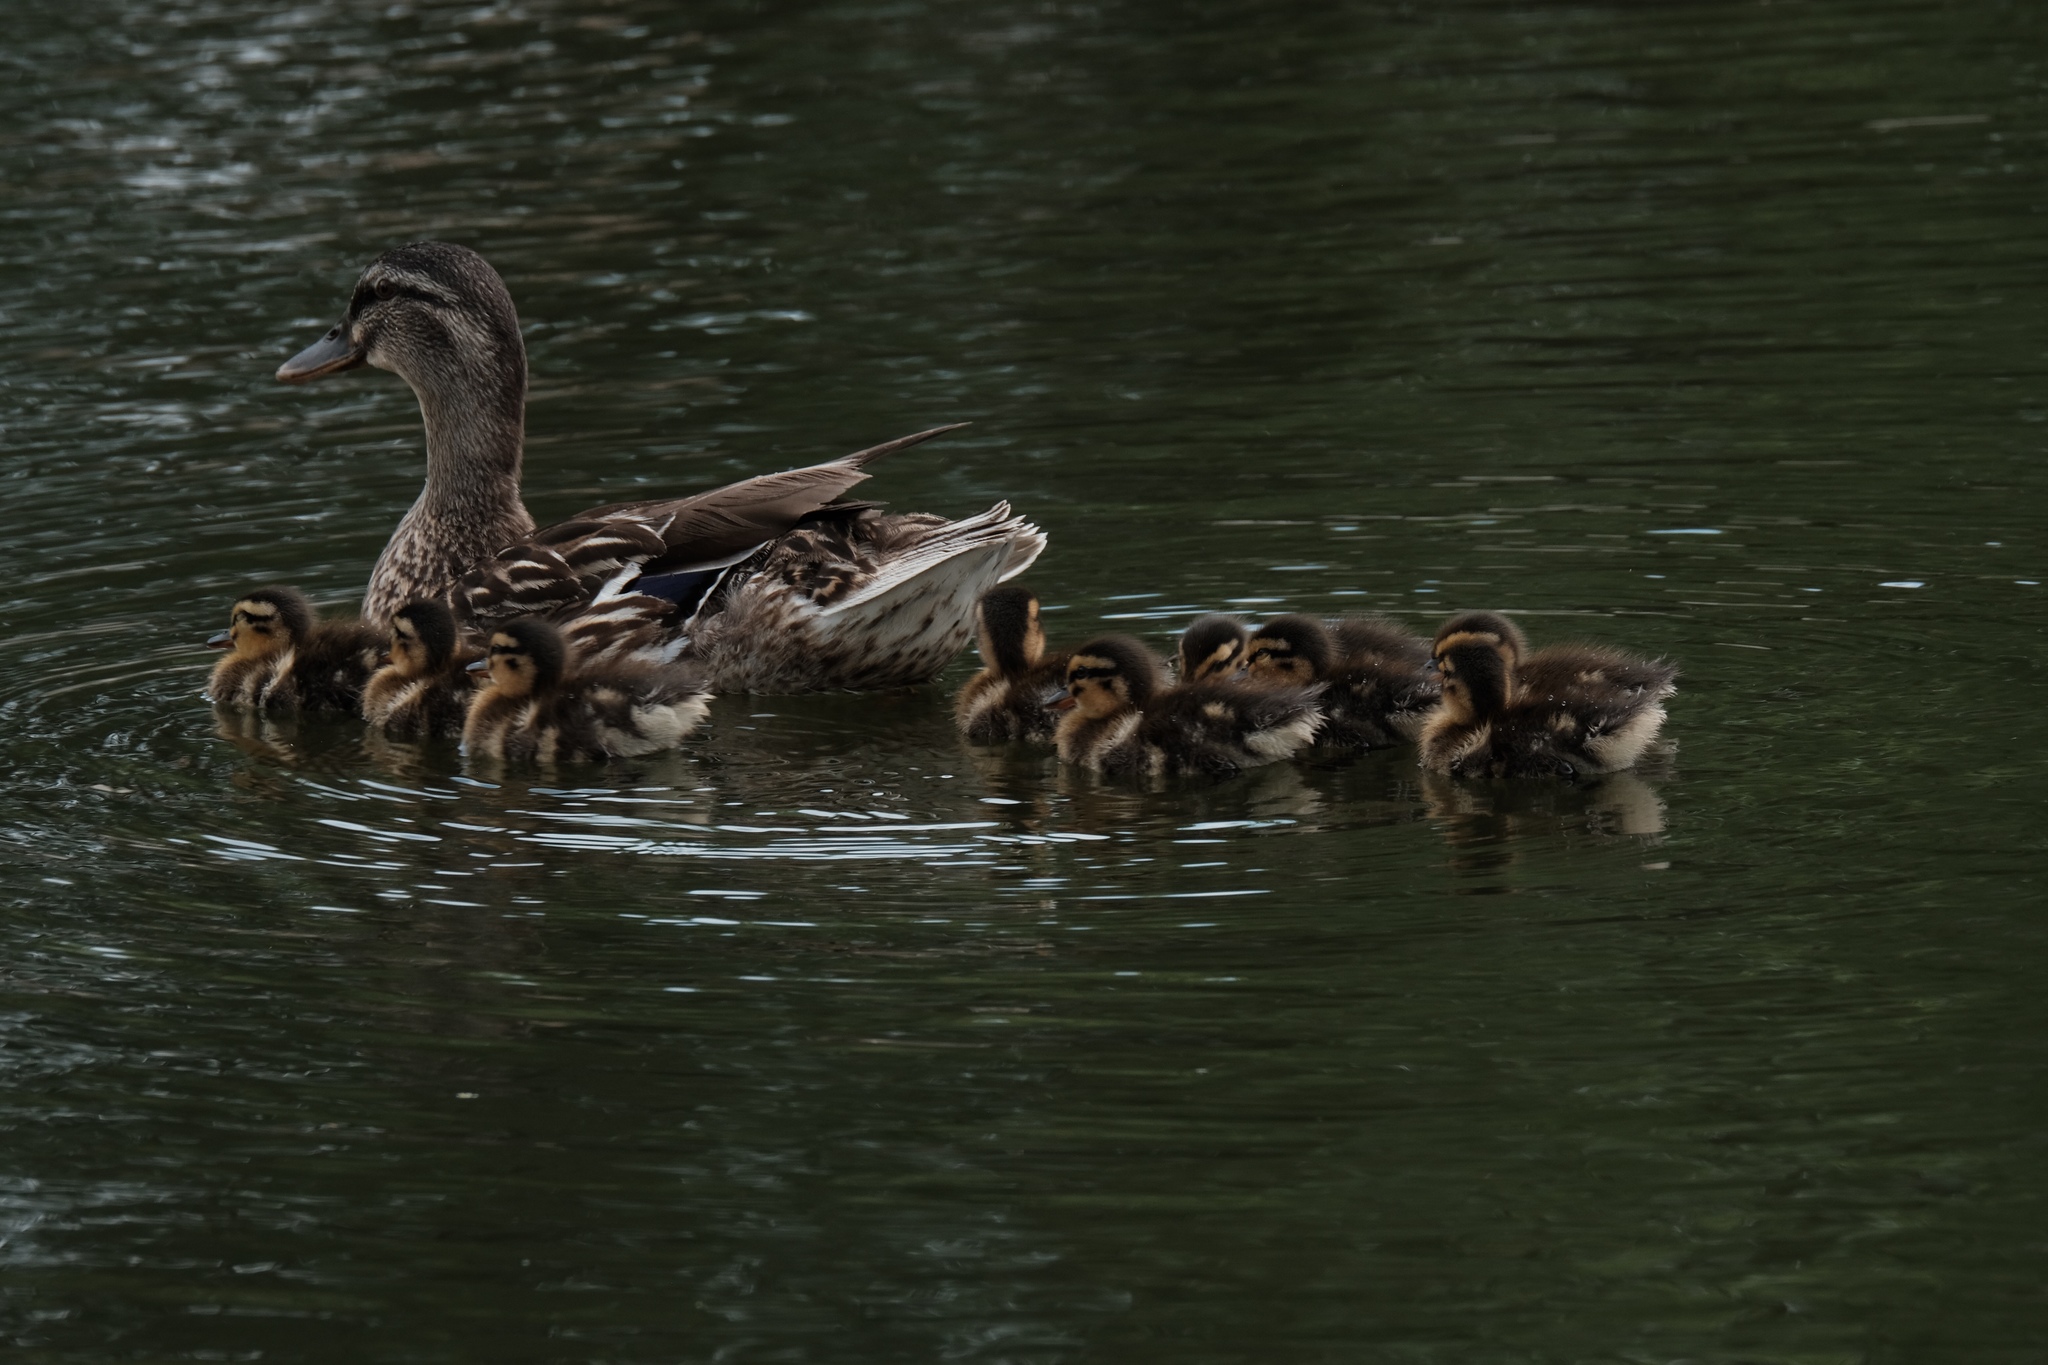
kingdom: Animalia
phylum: Chordata
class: Aves
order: Anseriformes
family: Anatidae
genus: Anas
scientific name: Anas platyrhynchos
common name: Mallard
